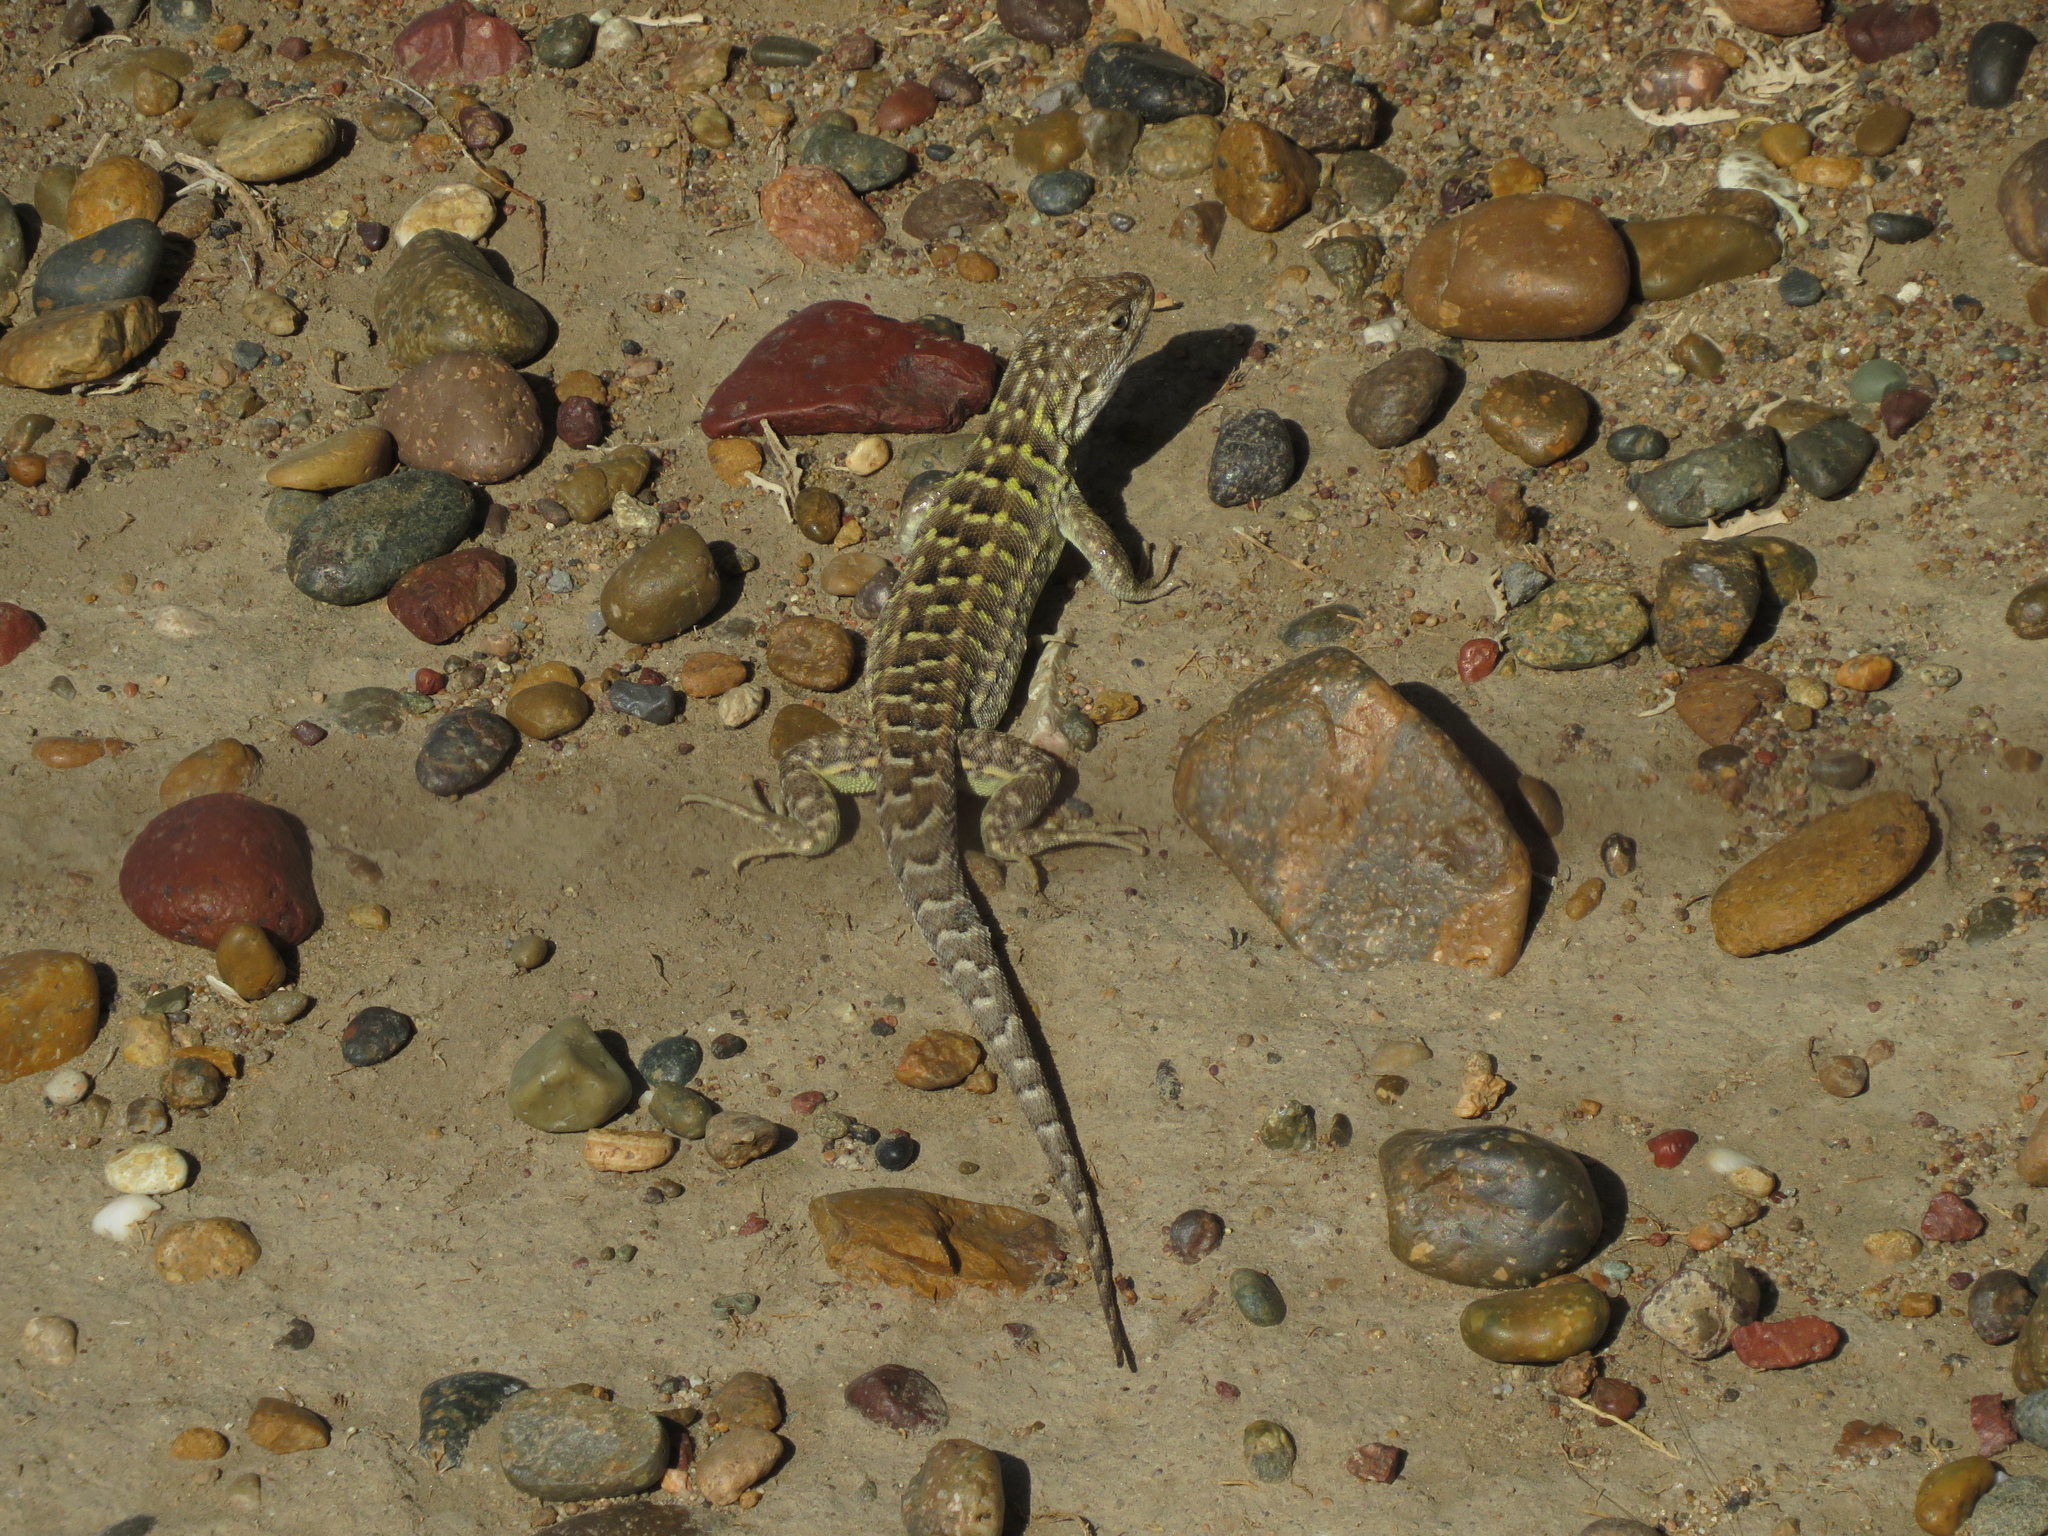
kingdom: Animalia
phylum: Chordata
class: Squamata
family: Liolaemidae
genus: Liolaemus
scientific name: Liolaemus darwinii
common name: Darwin's tree iguana
